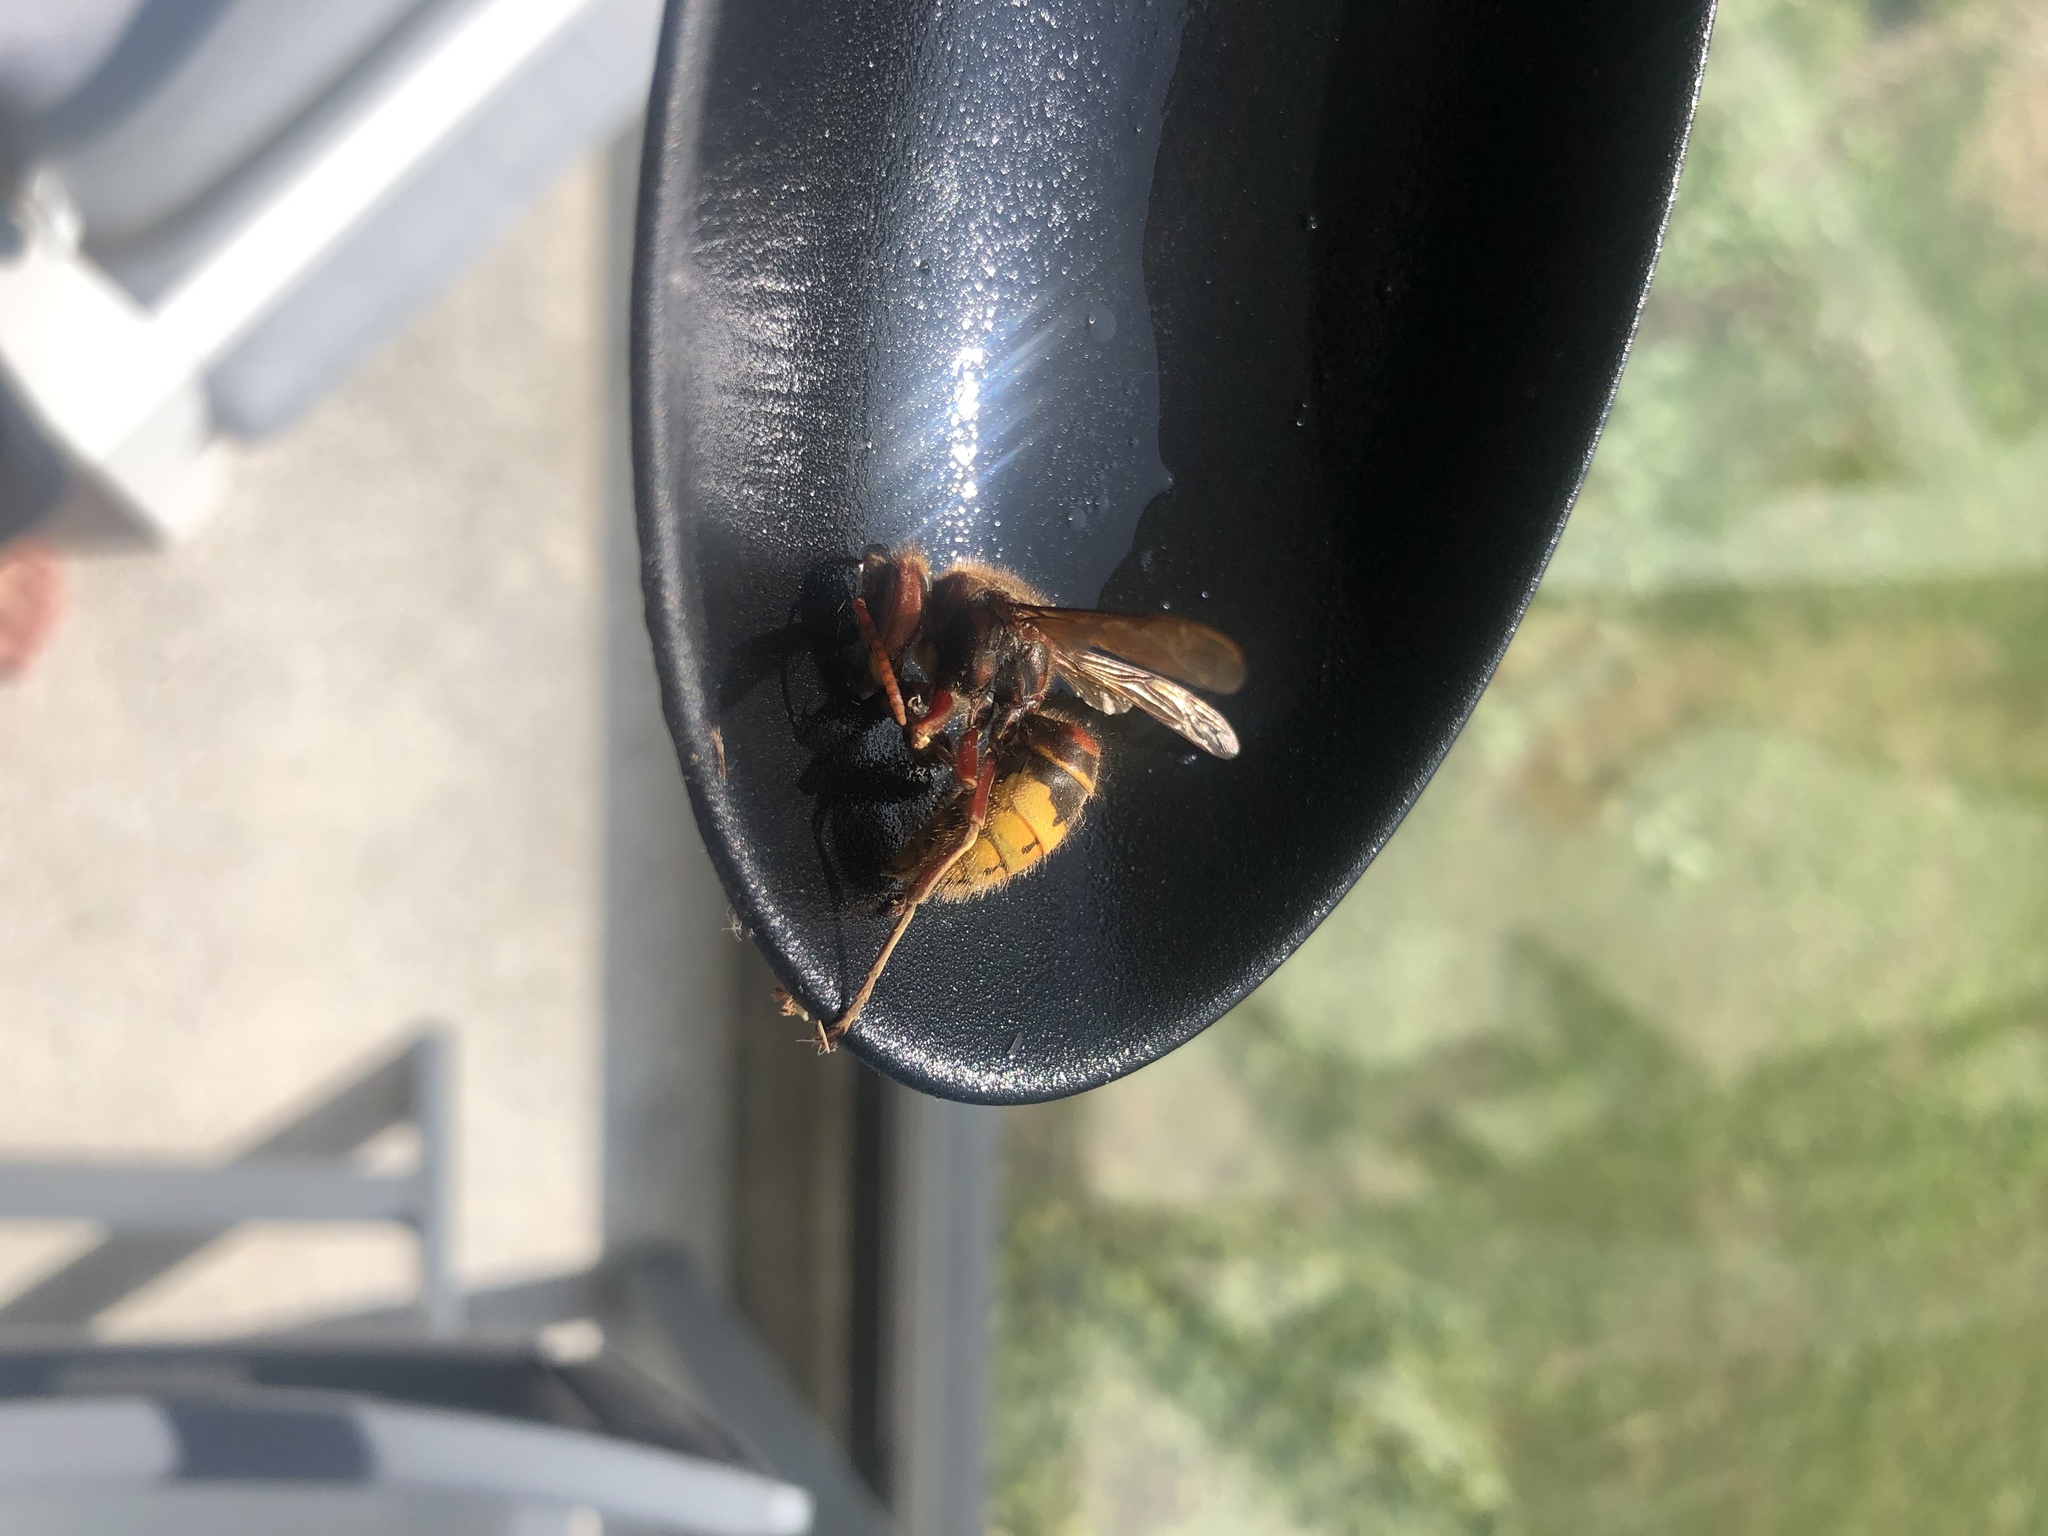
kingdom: Animalia
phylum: Arthropoda
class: Insecta
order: Hymenoptera
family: Vespidae
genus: Vespa
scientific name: Vespa crabro
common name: Hornet
